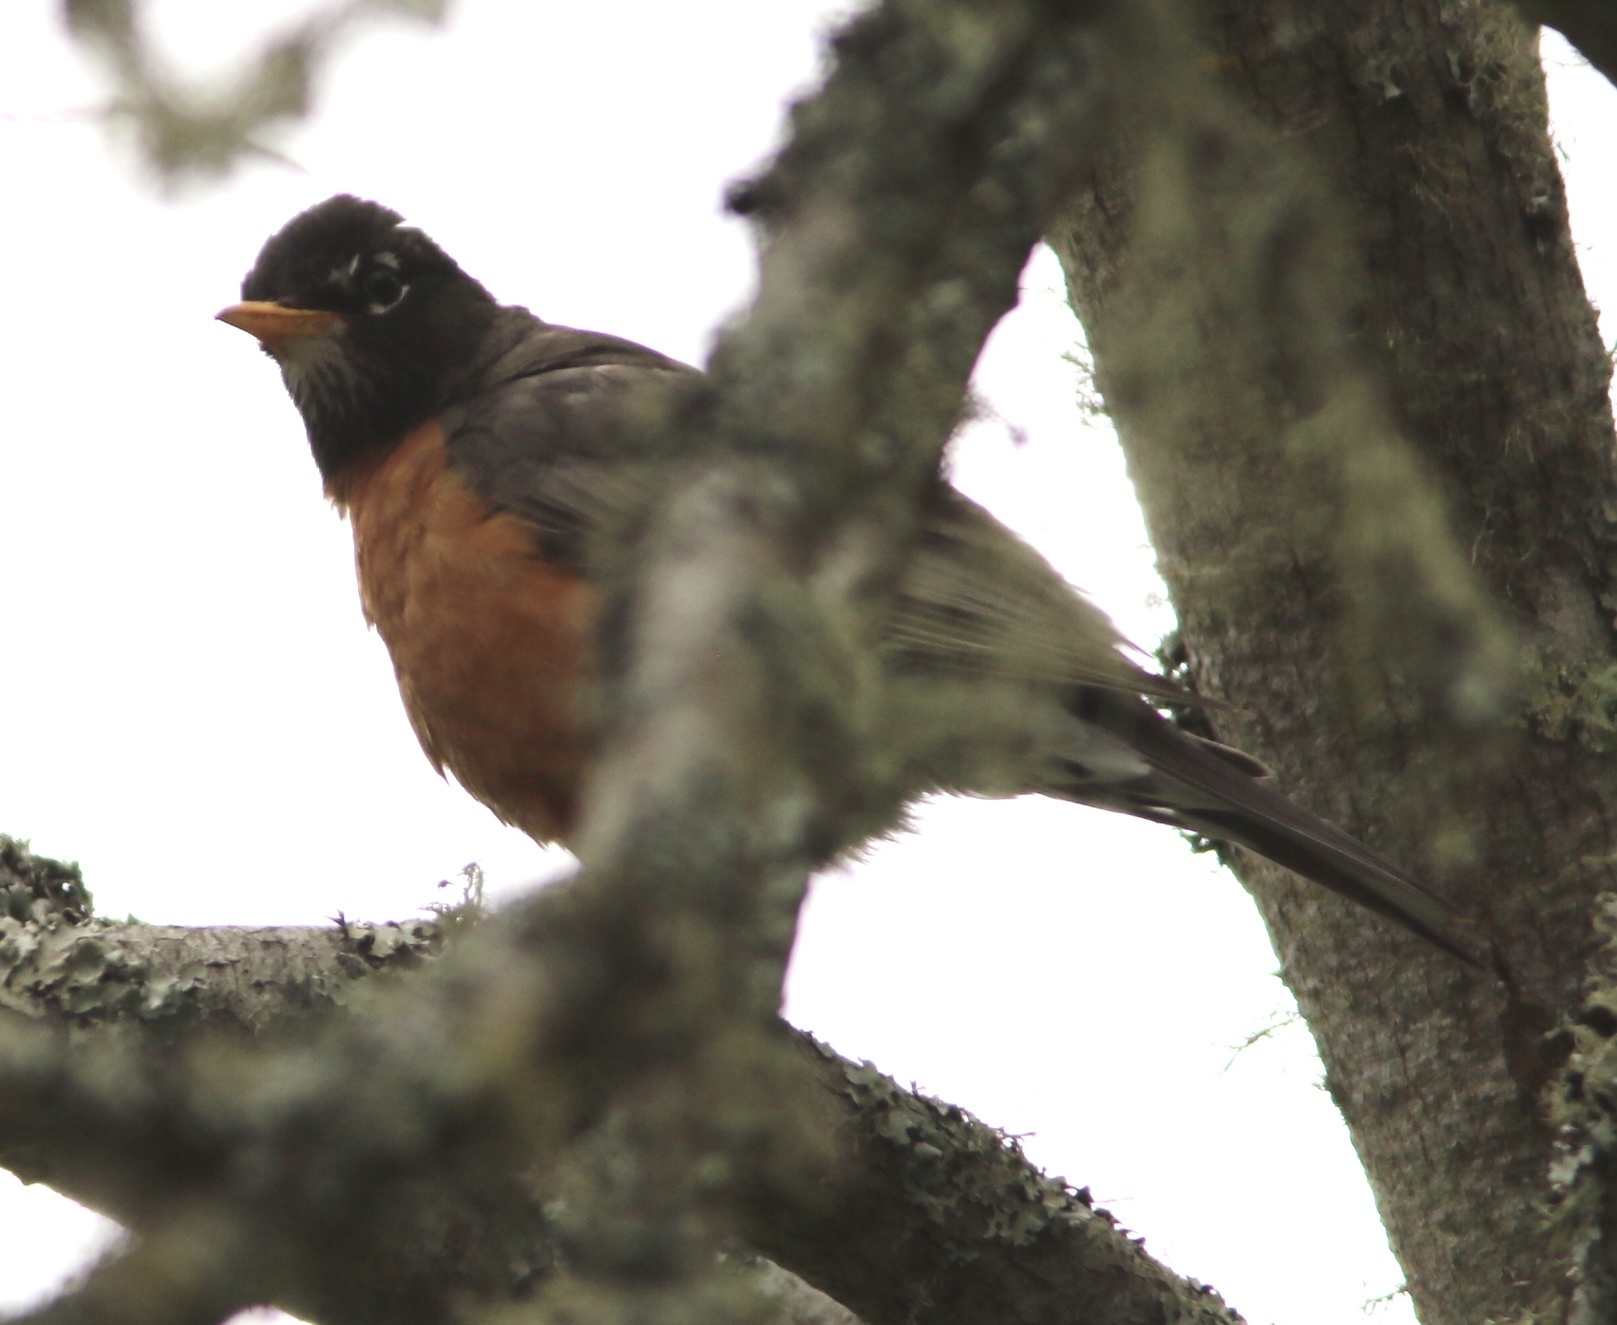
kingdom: Animalia
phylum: Chordata
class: Aves
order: Passeriformes
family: Turdidae
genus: Turdus
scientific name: Turdus migratorius
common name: American robin
